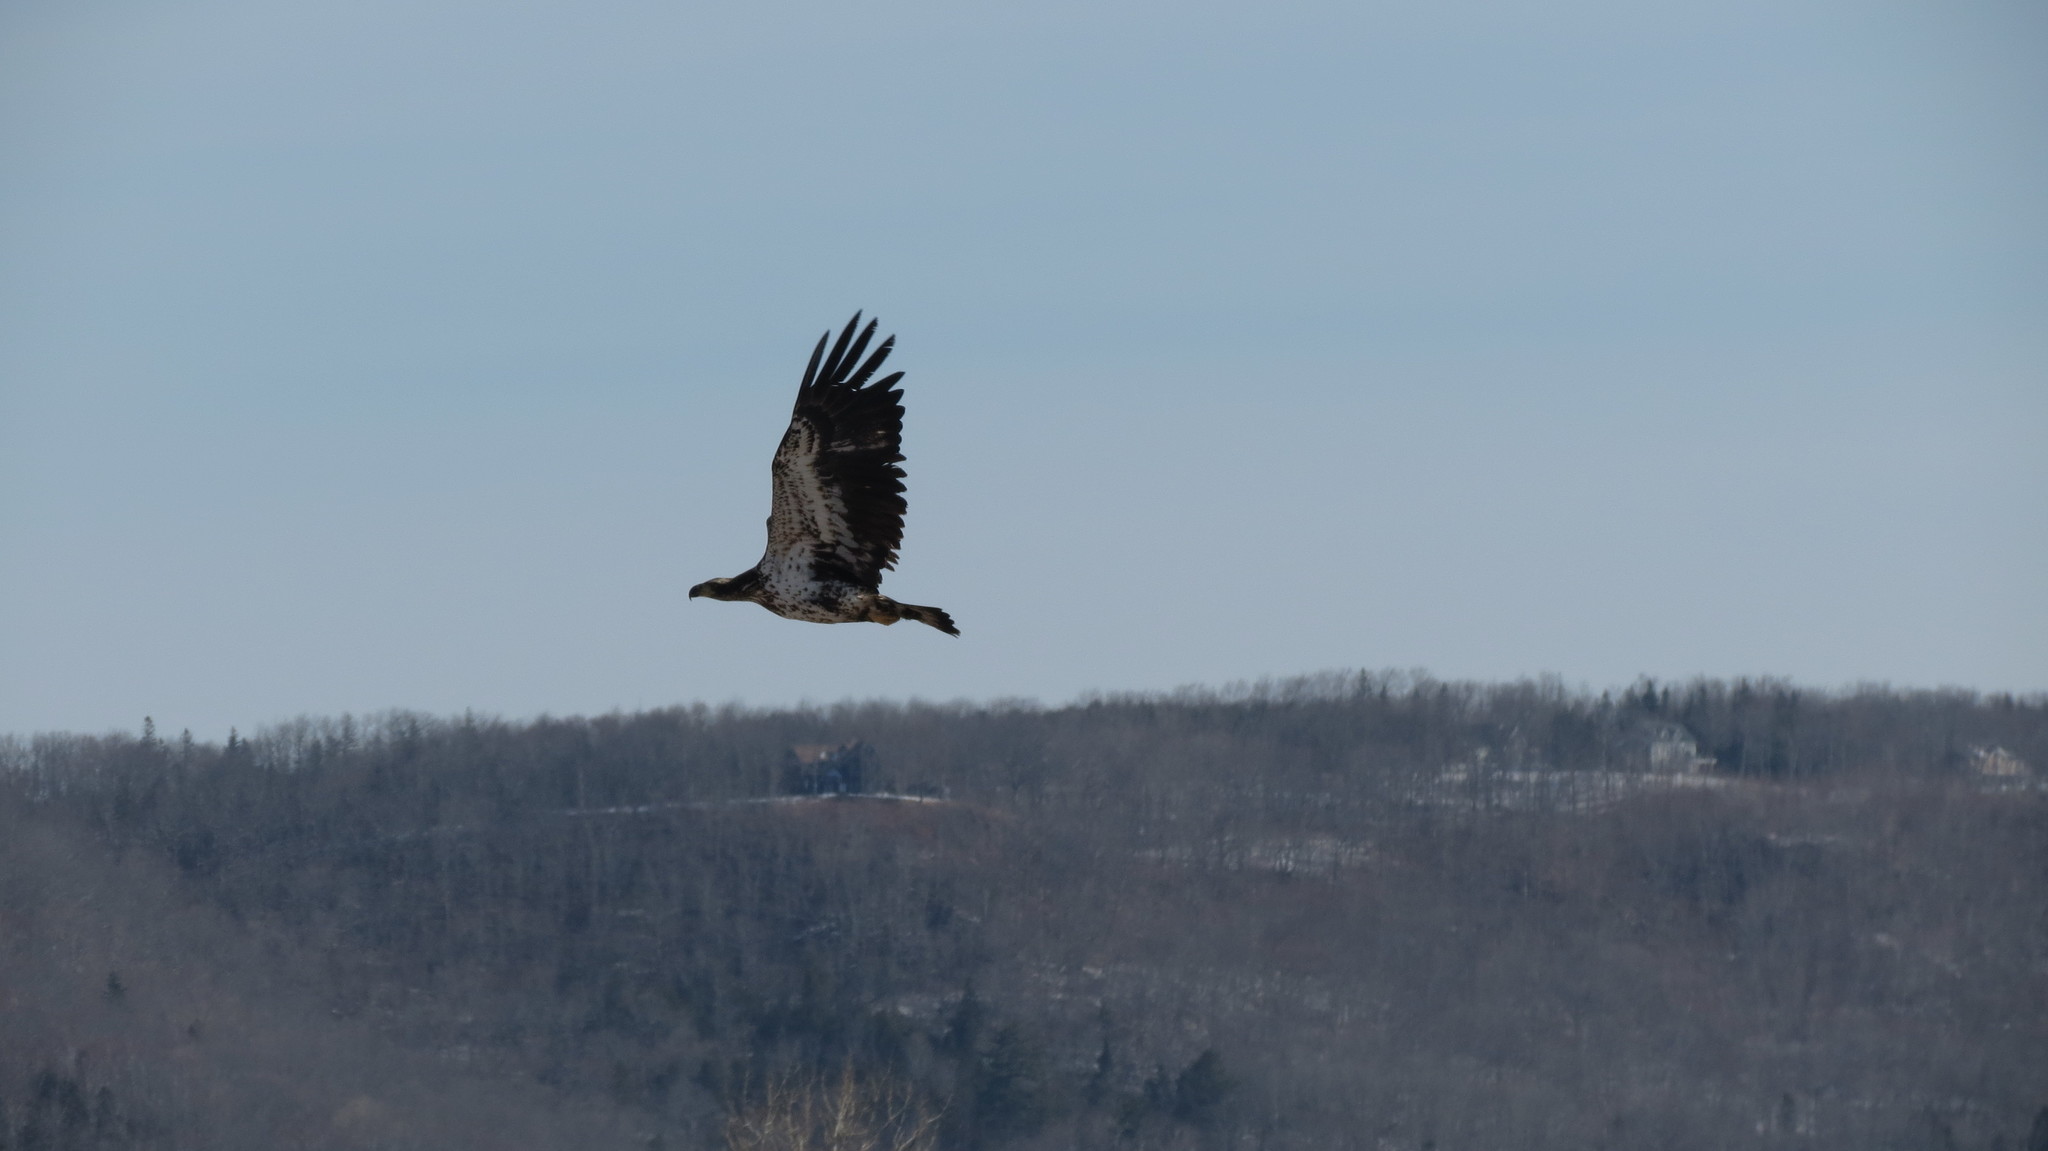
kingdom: Animalia
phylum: Chordata
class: Aves
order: Accipitriformes
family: Accipitridae
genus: Haliaeetus
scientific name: Haliaeetus leucocephalus
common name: Bald eagle
